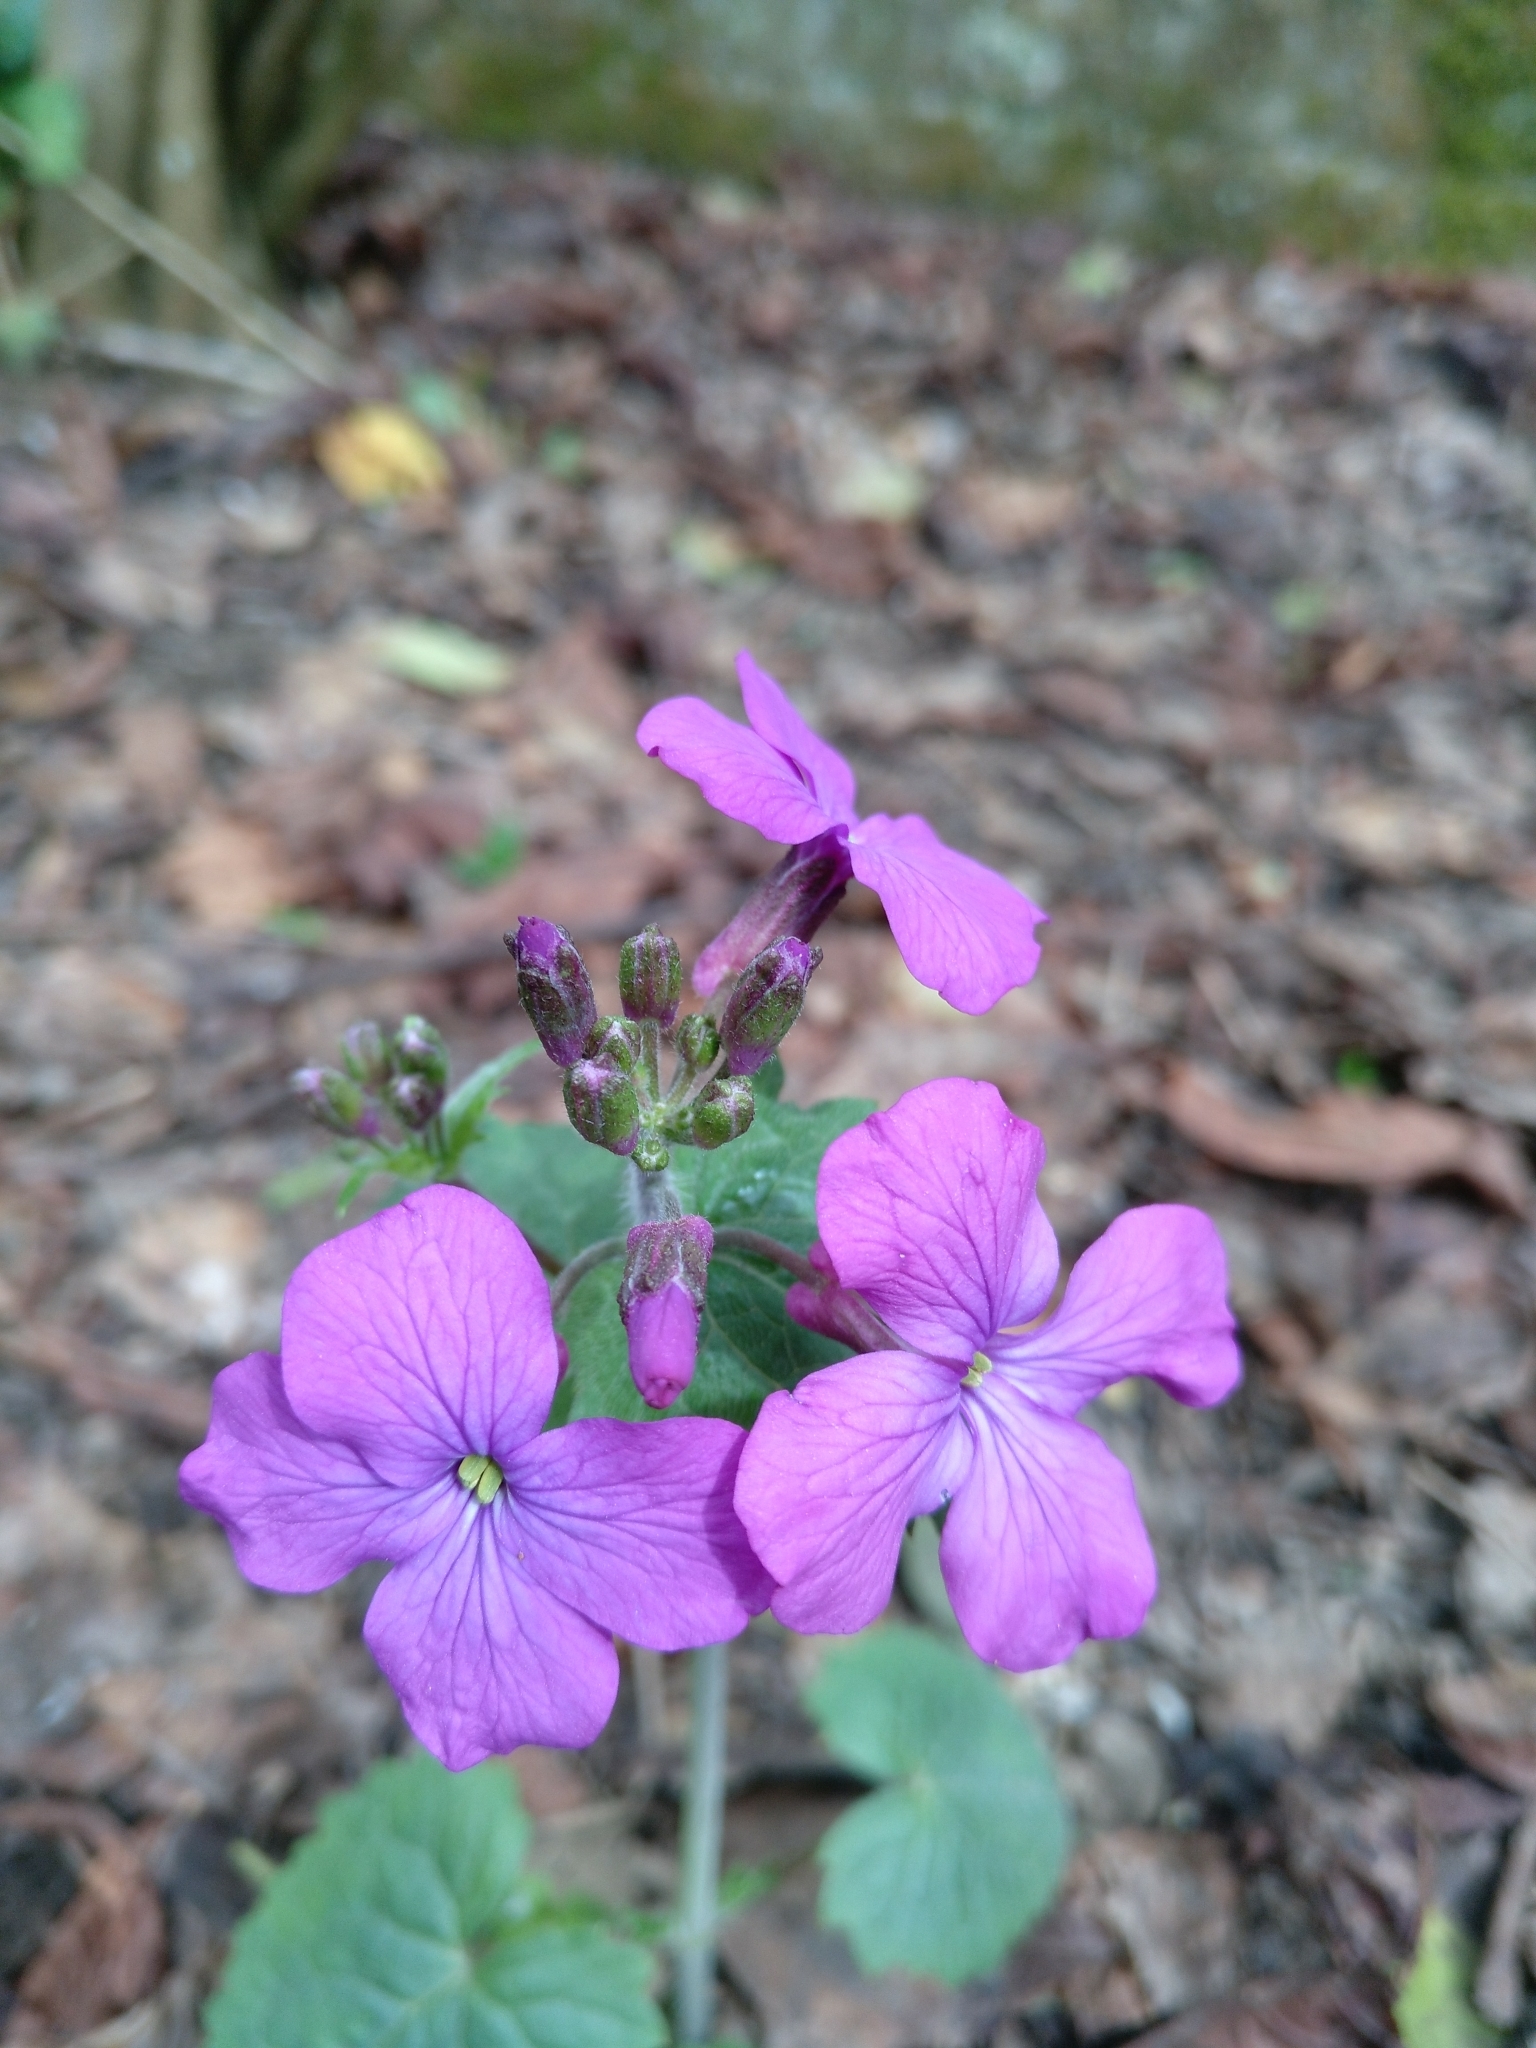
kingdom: Plantae
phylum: Tracheophyta
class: Magnoliopsida
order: Brassicales
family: Brassicaceae
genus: Lunaria
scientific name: Lunaria annua
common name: Honesty
